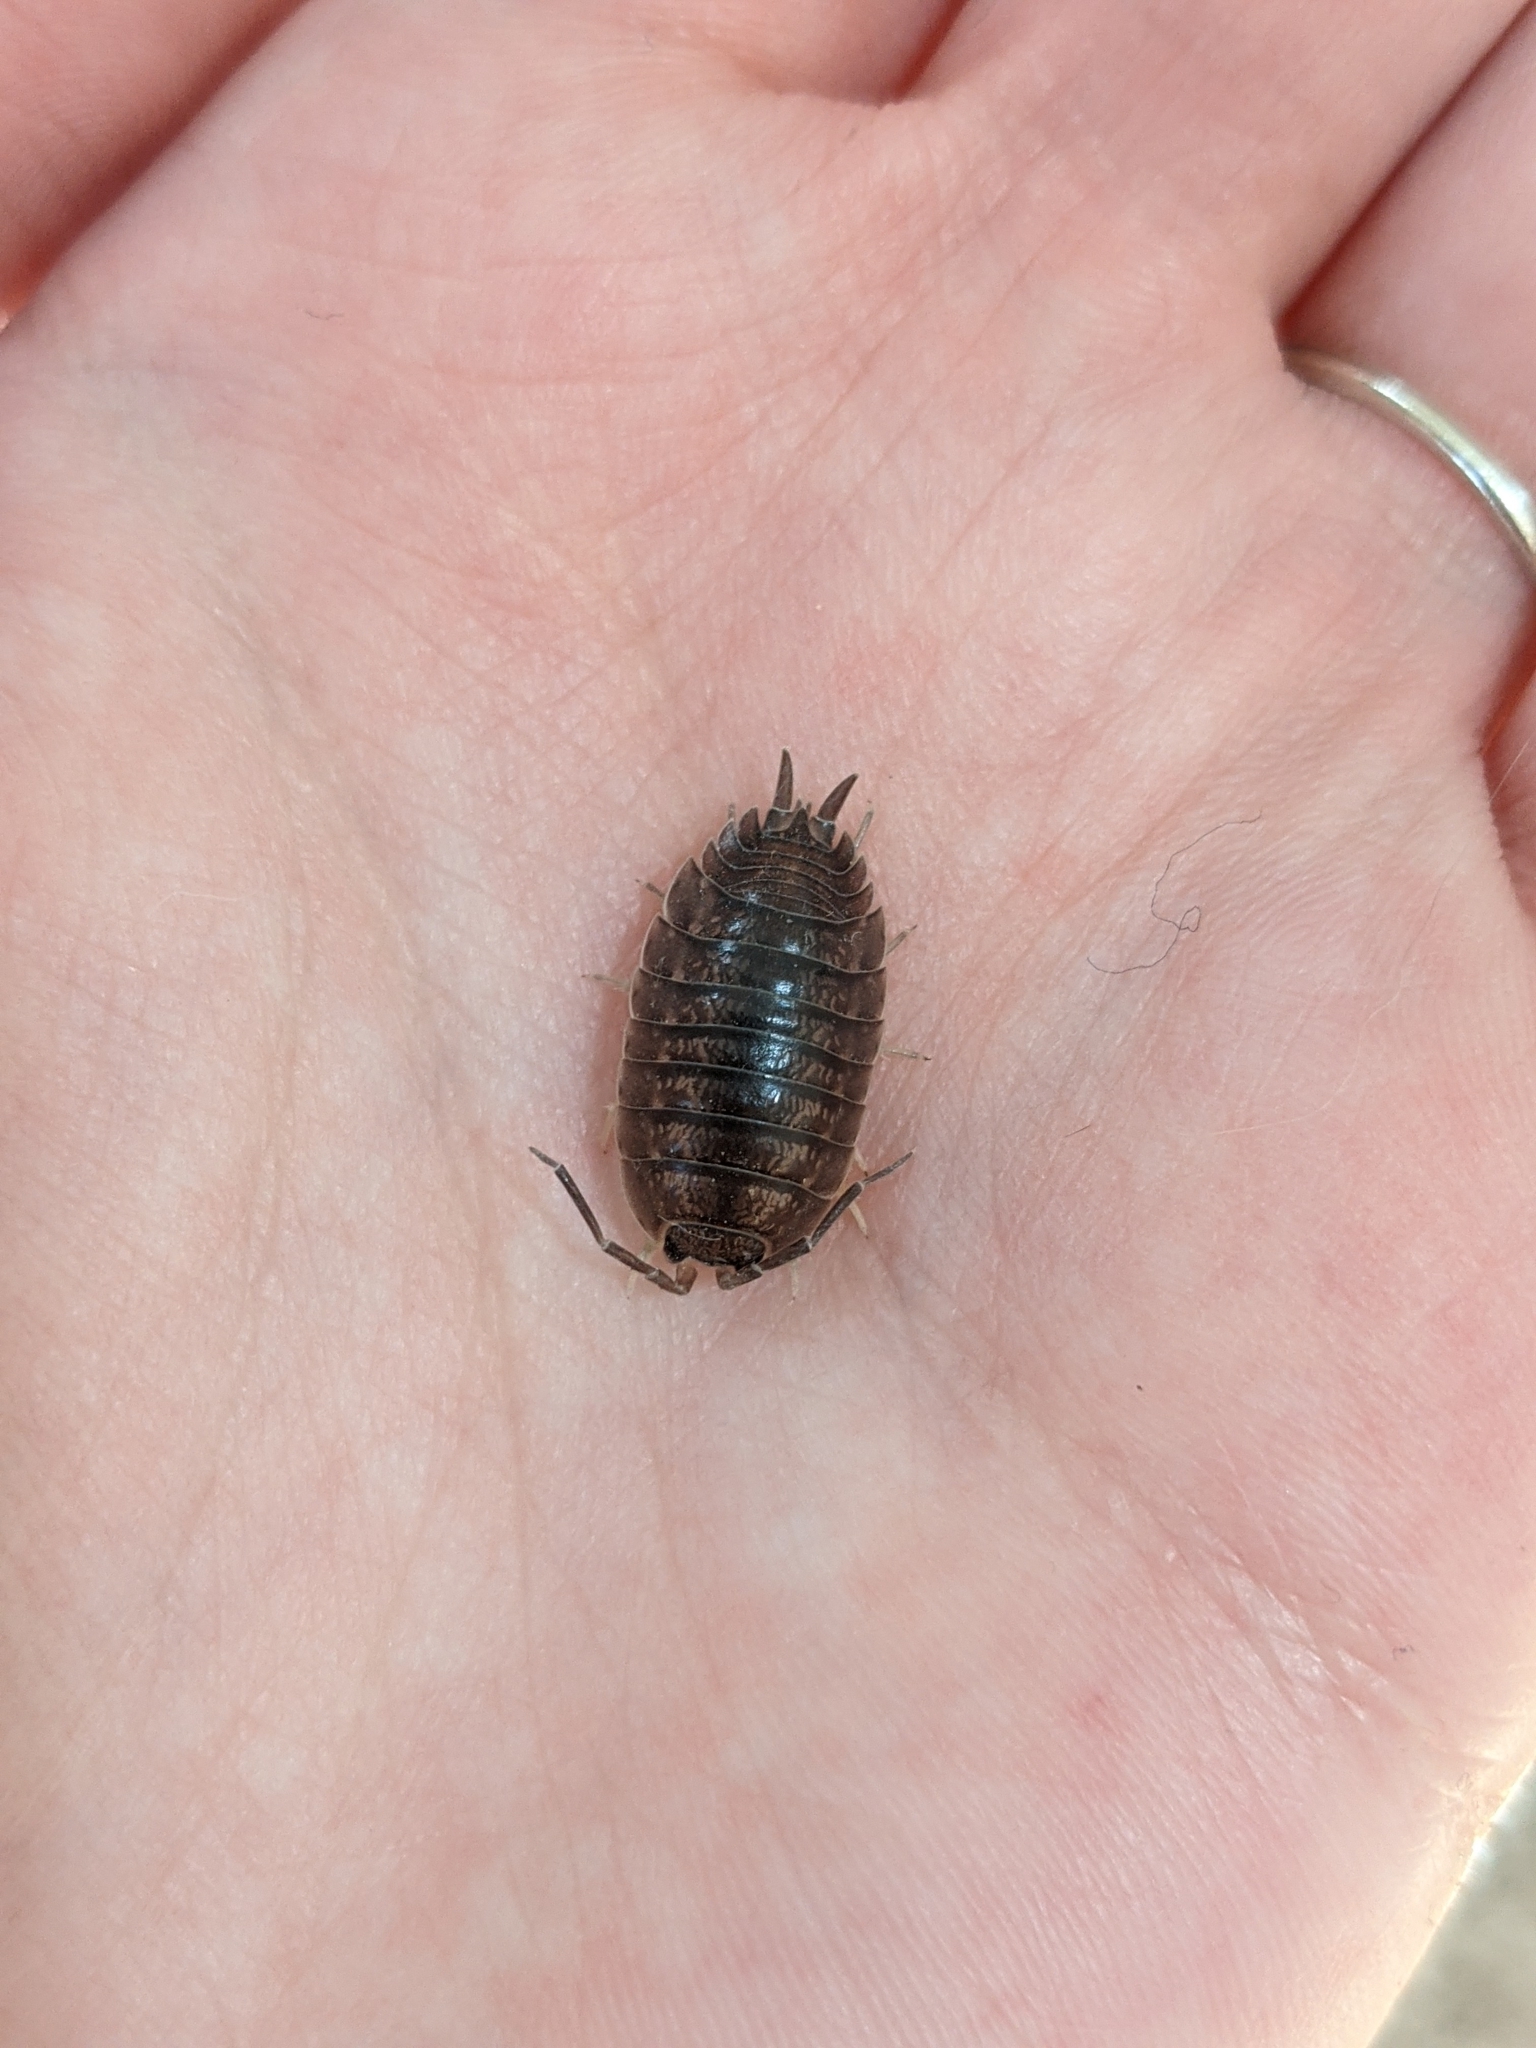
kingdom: Animalia
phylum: Arthropoda
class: Malacostraca
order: Isopoda
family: Porcellionidae
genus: Porcellio
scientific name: Porcellio laevis
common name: Swift woodlouse
